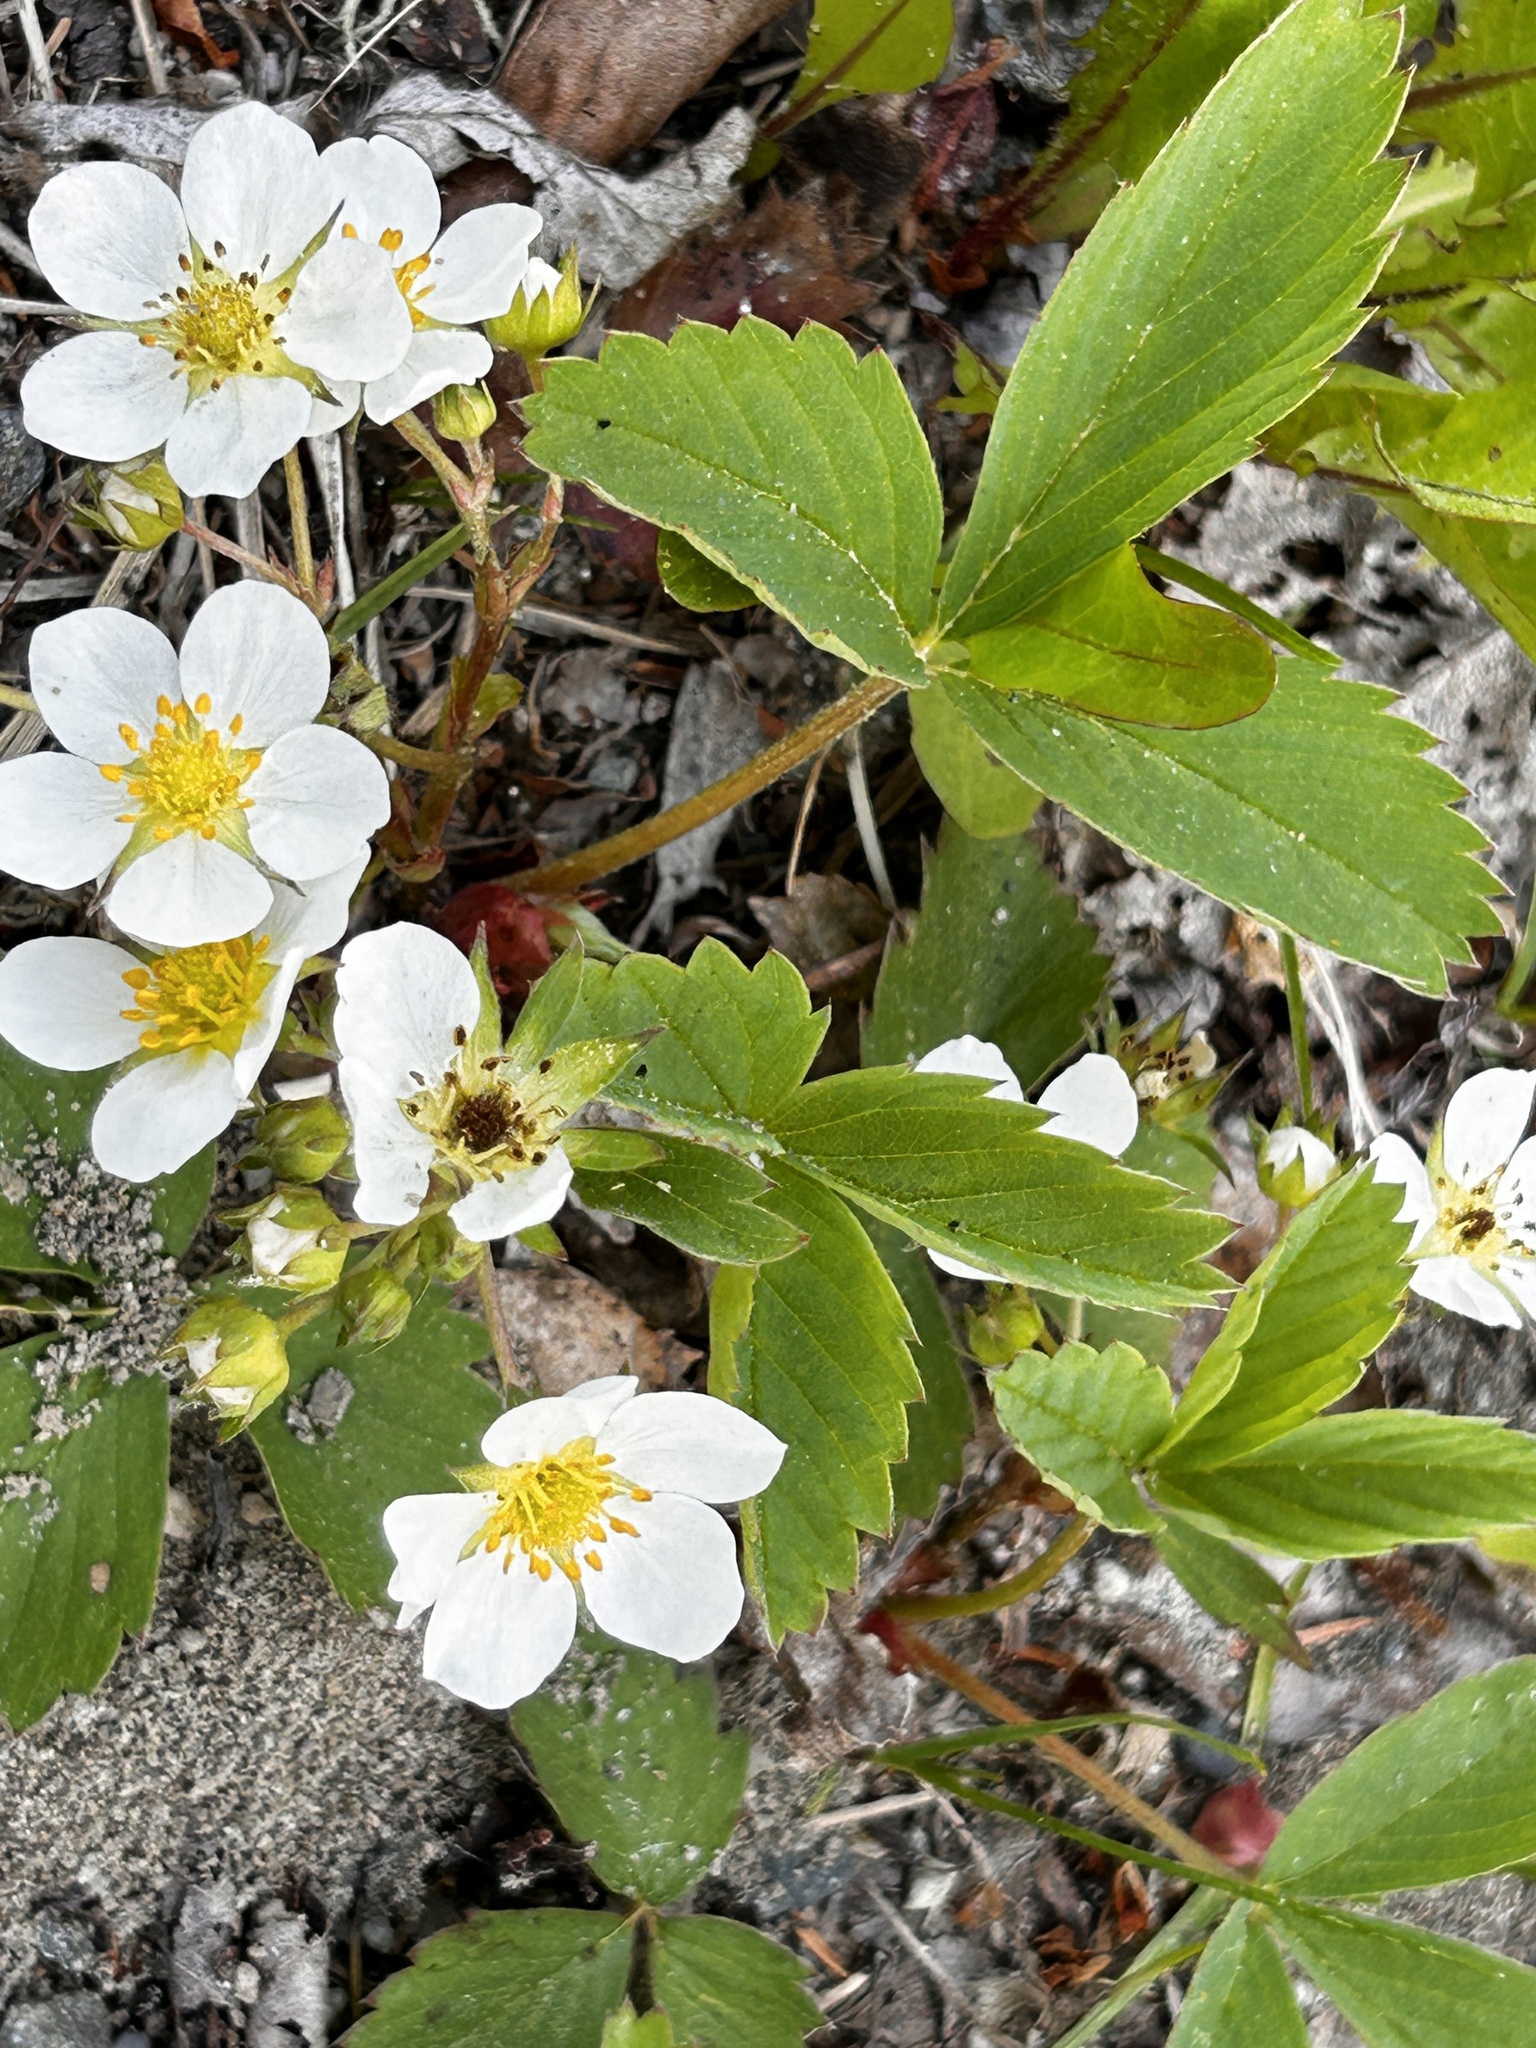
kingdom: Plantae
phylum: Tracheophyta
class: Magnoliopsida
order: Rosales
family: Rosaceae
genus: Fragaria
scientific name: Fragaria virginiana
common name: Thickleaved wild strawberry
